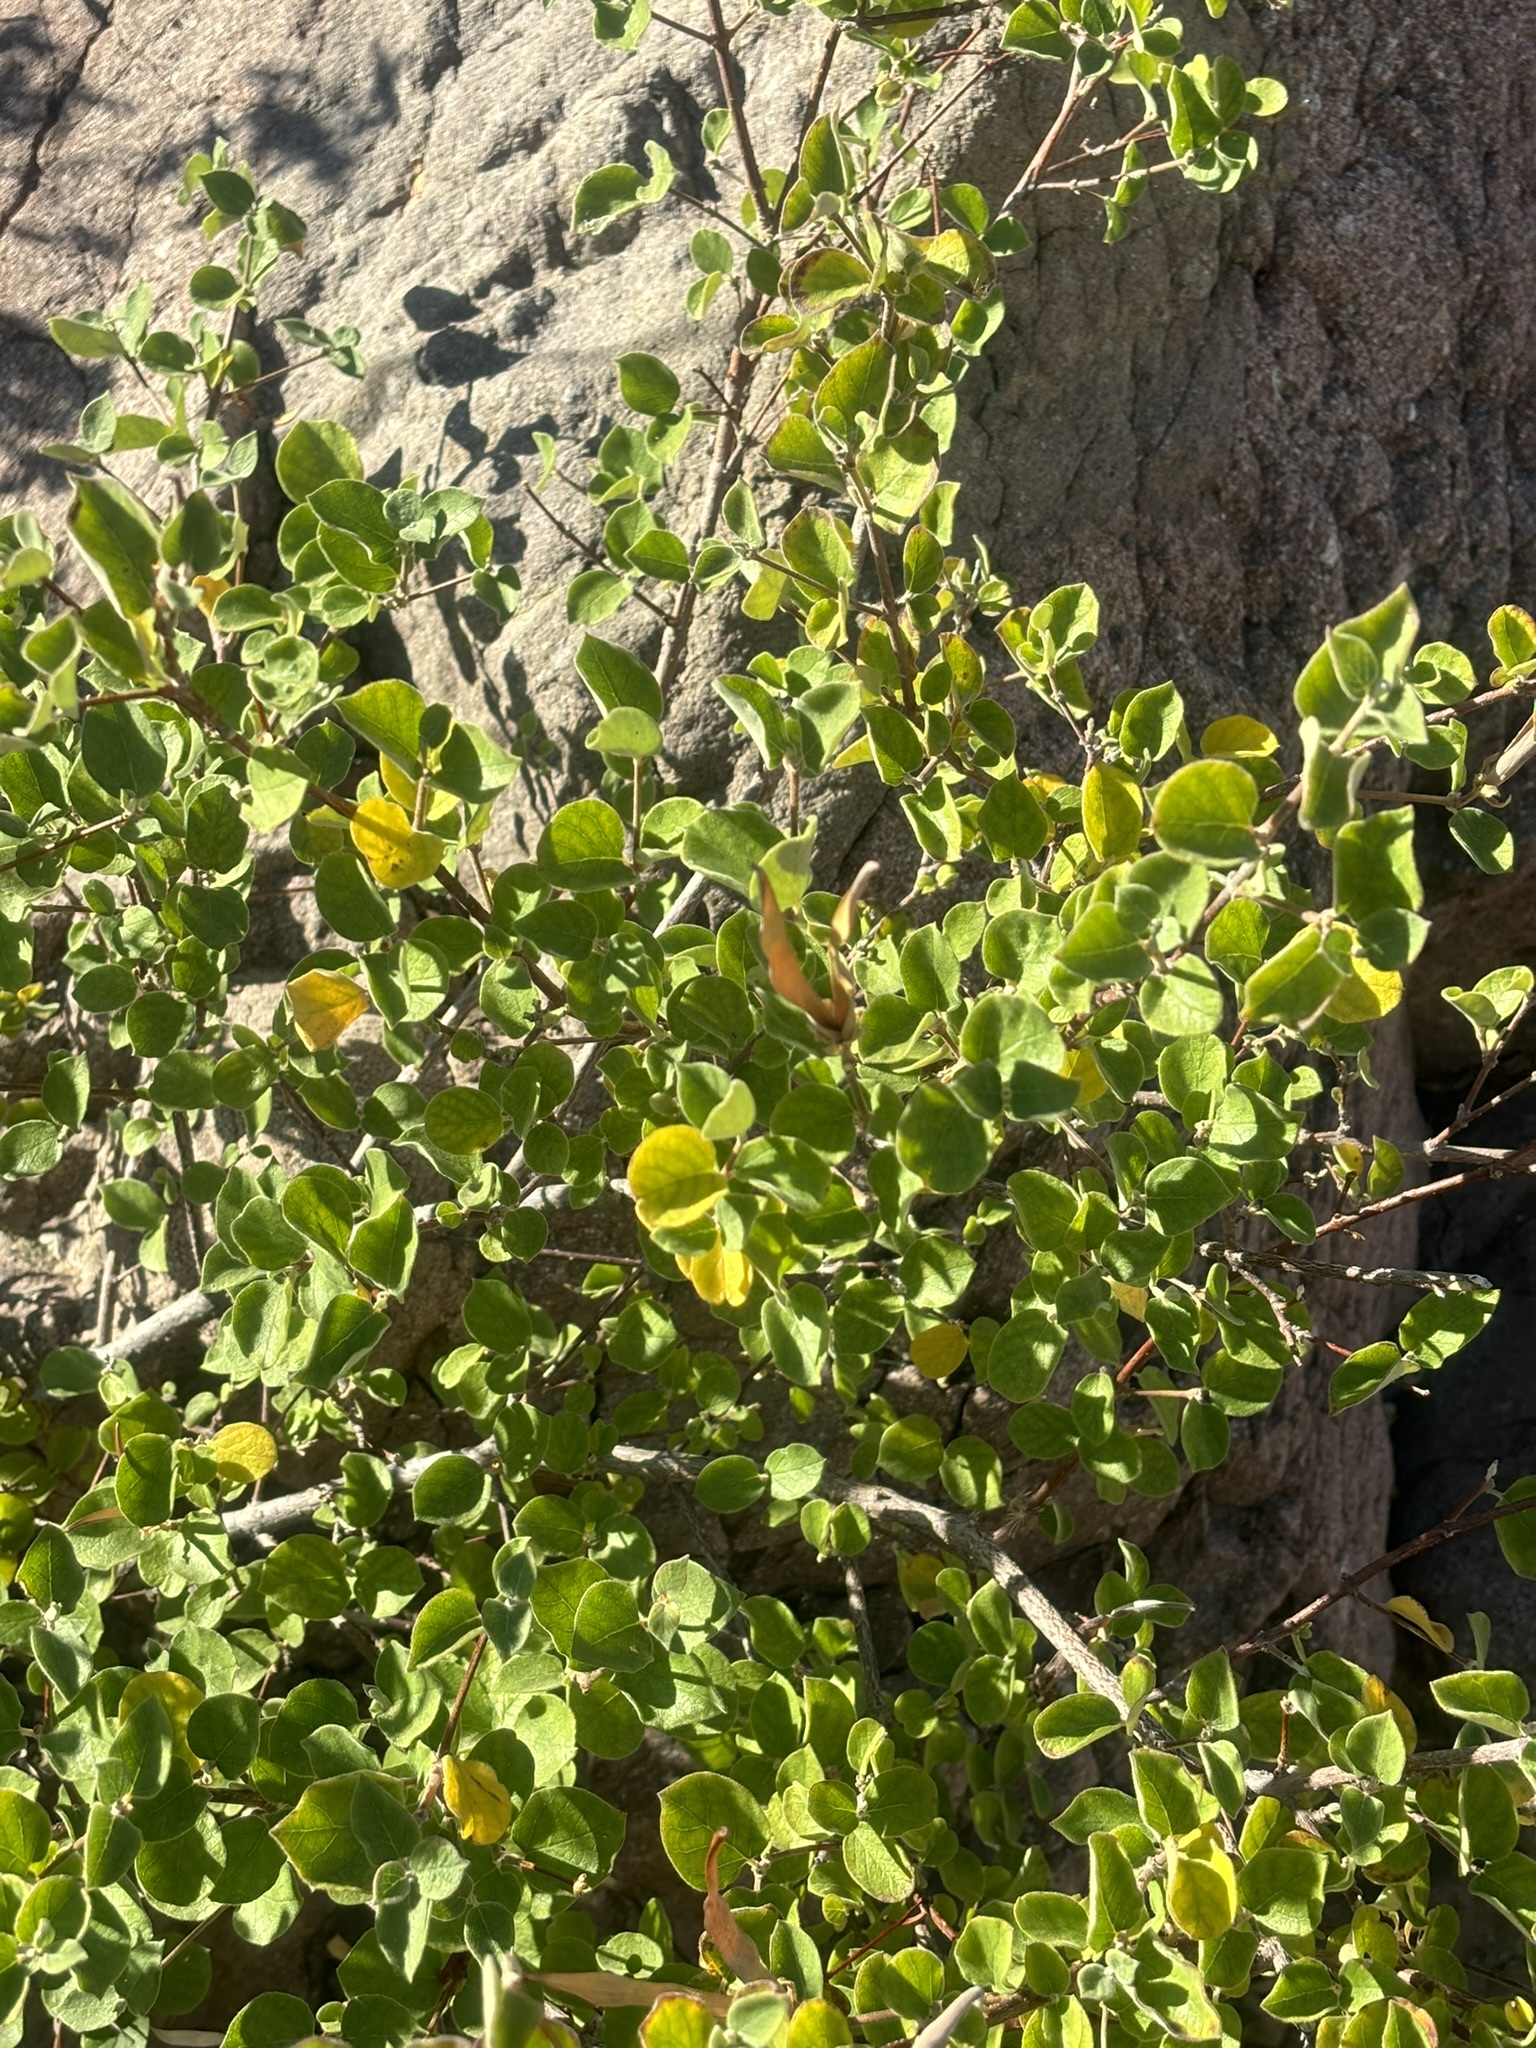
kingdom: Plantae
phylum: Tracheophyta
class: Magnoliopsida
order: Gentianales
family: Apocynaceae
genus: Mandevilla
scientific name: Mandevilla hesperia
